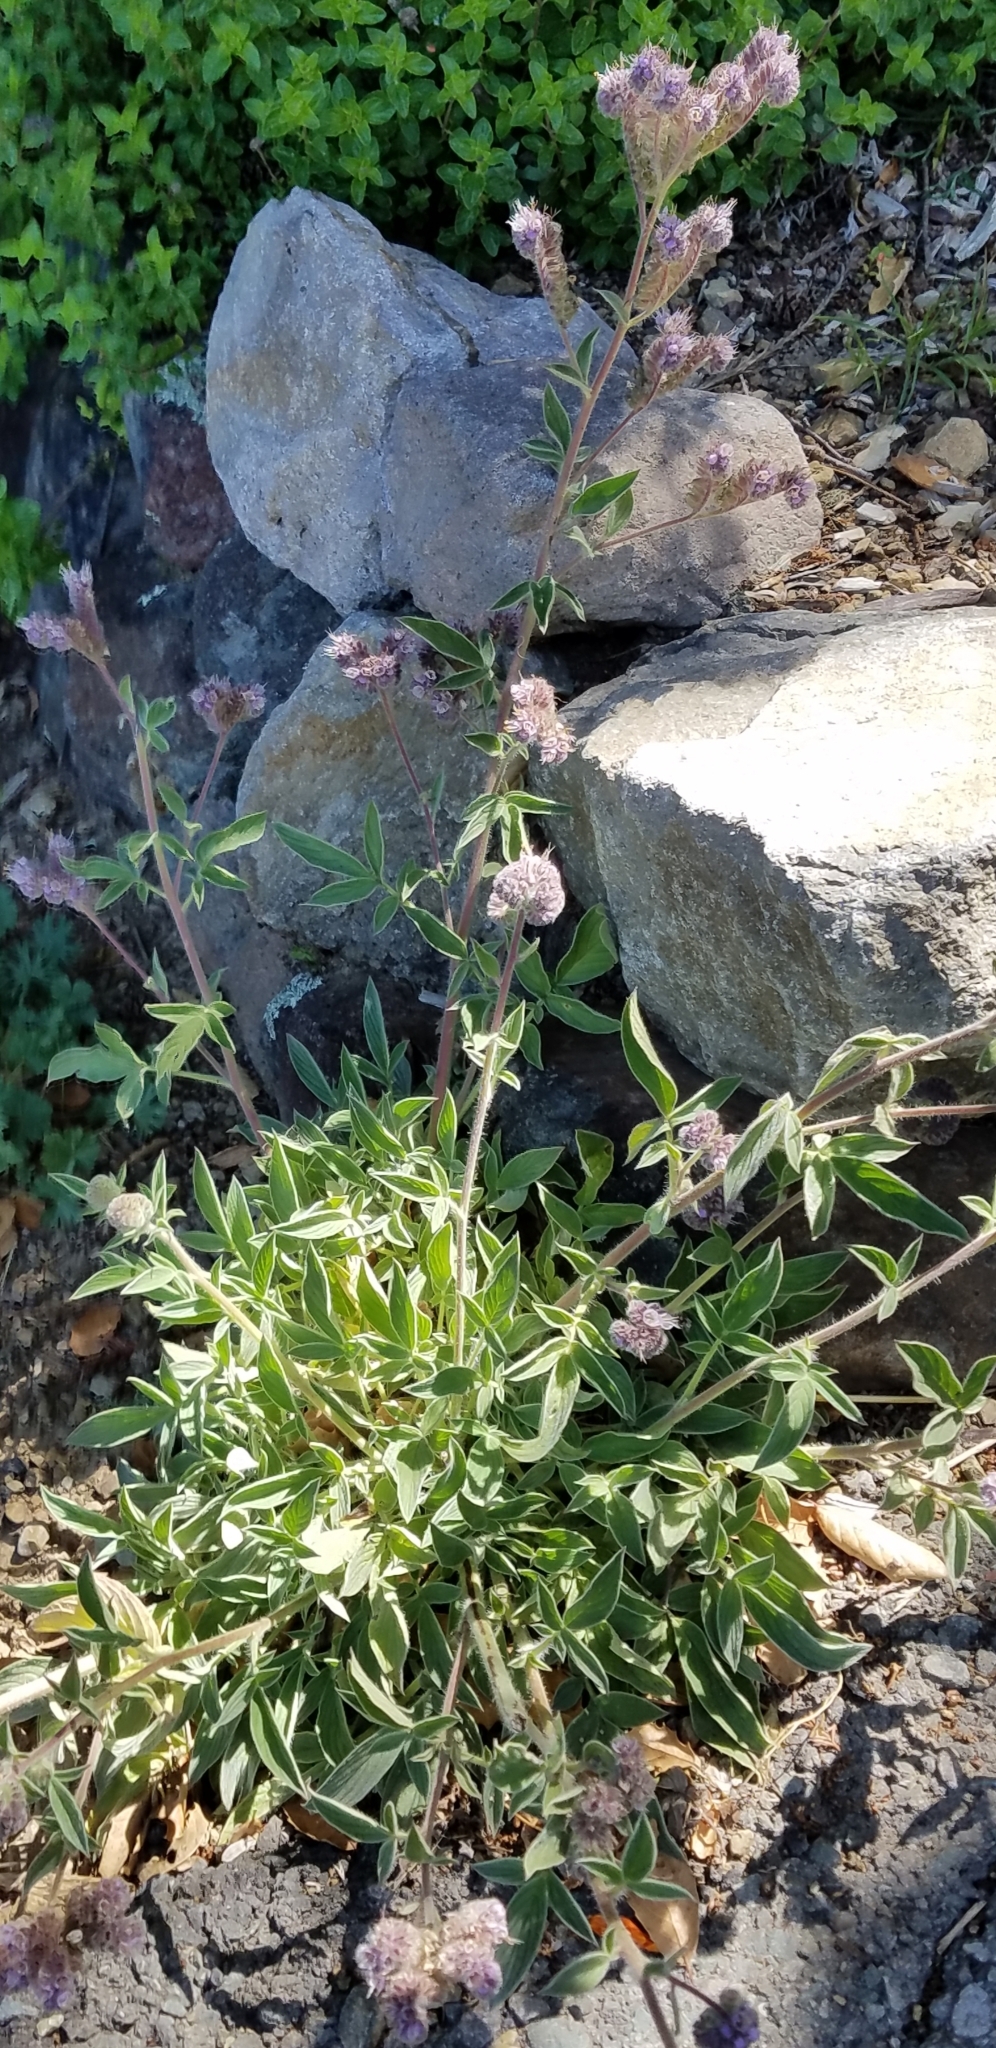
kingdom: Plantae
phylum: Tracheophyta
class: Magnoliopsida
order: Boraginales
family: Hydrophyllaceae
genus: Phacelia
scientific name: Phacelia californica
